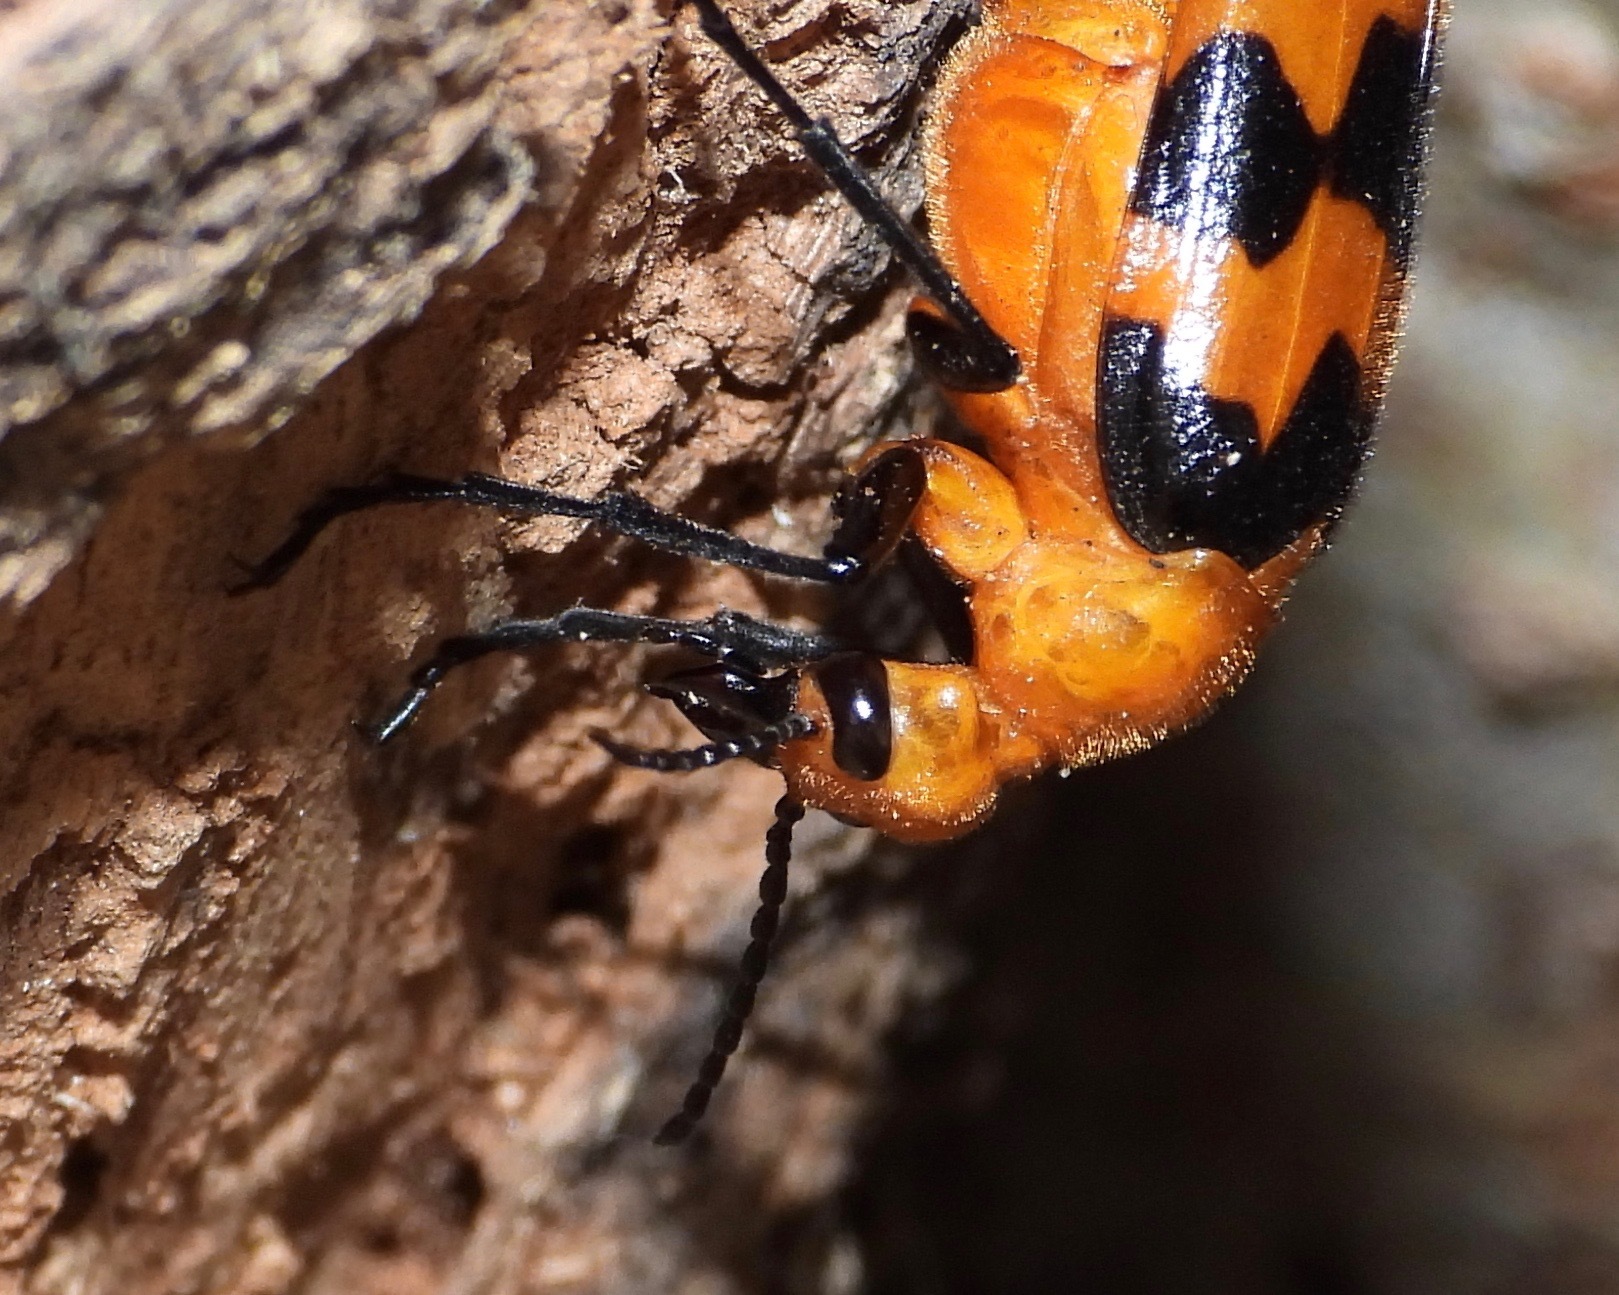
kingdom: Animalia
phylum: Arthropoda
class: Insecta
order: Coleoptera
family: Meloidae
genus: Cissites
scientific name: Cissites auriculata
